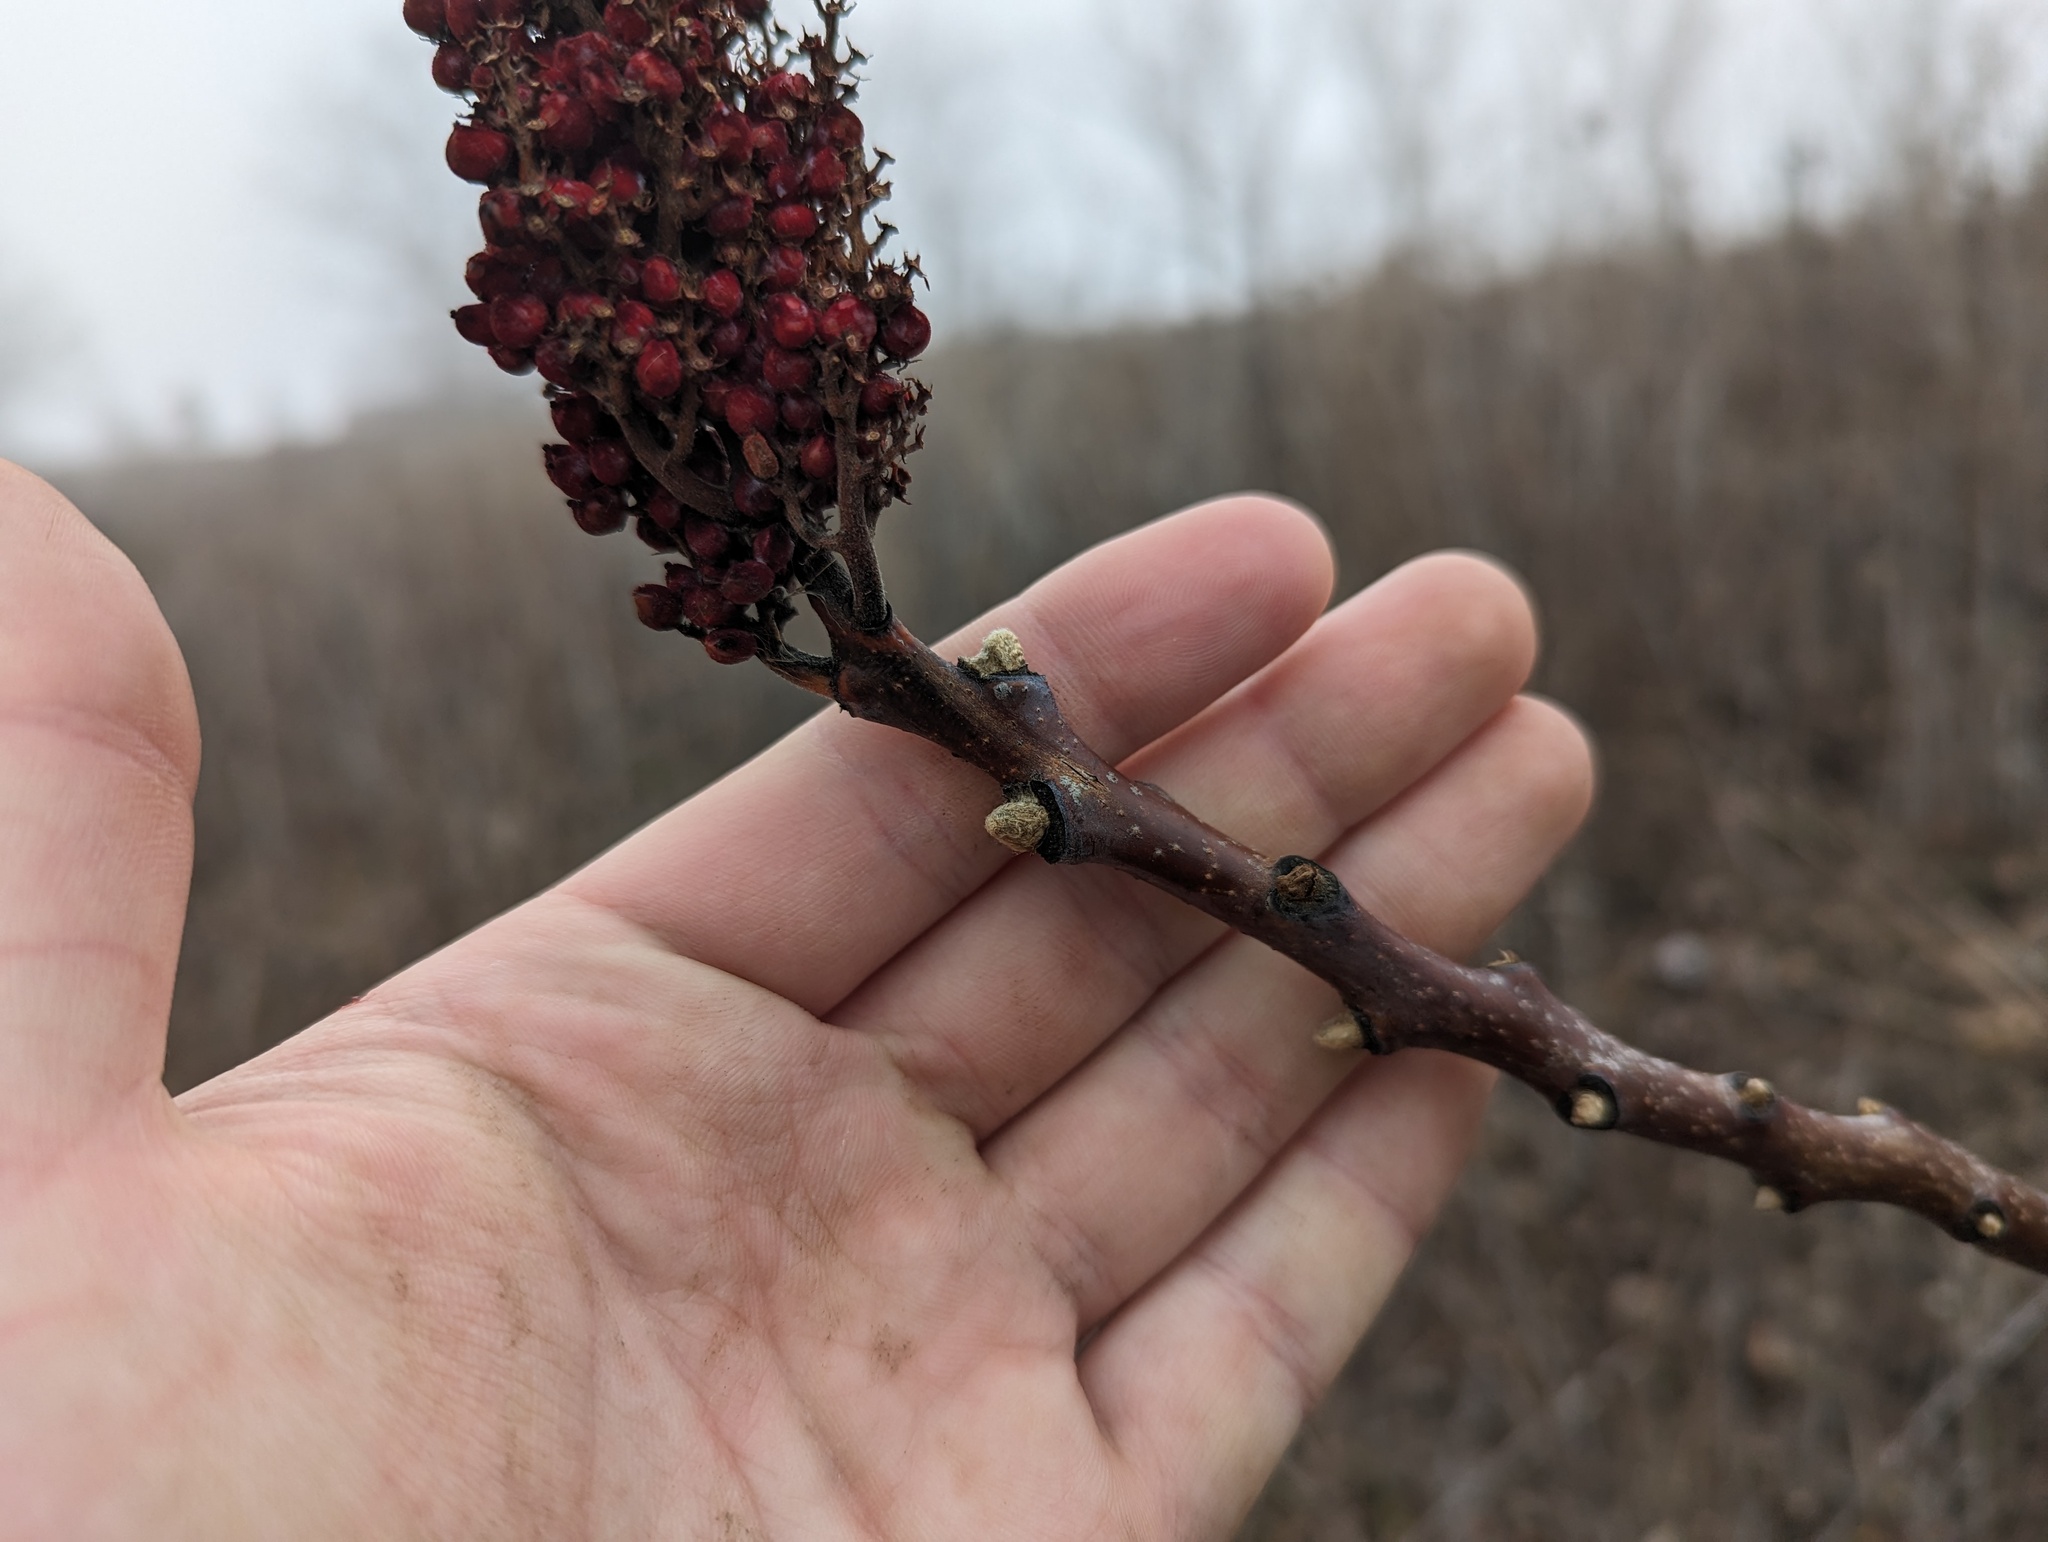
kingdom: Plantae
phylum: Tracheophyta
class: Magnoliopsida
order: Sapindales
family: Anacardiaceae
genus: Rhus
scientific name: Rhus glabra
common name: Scarlet sumac
